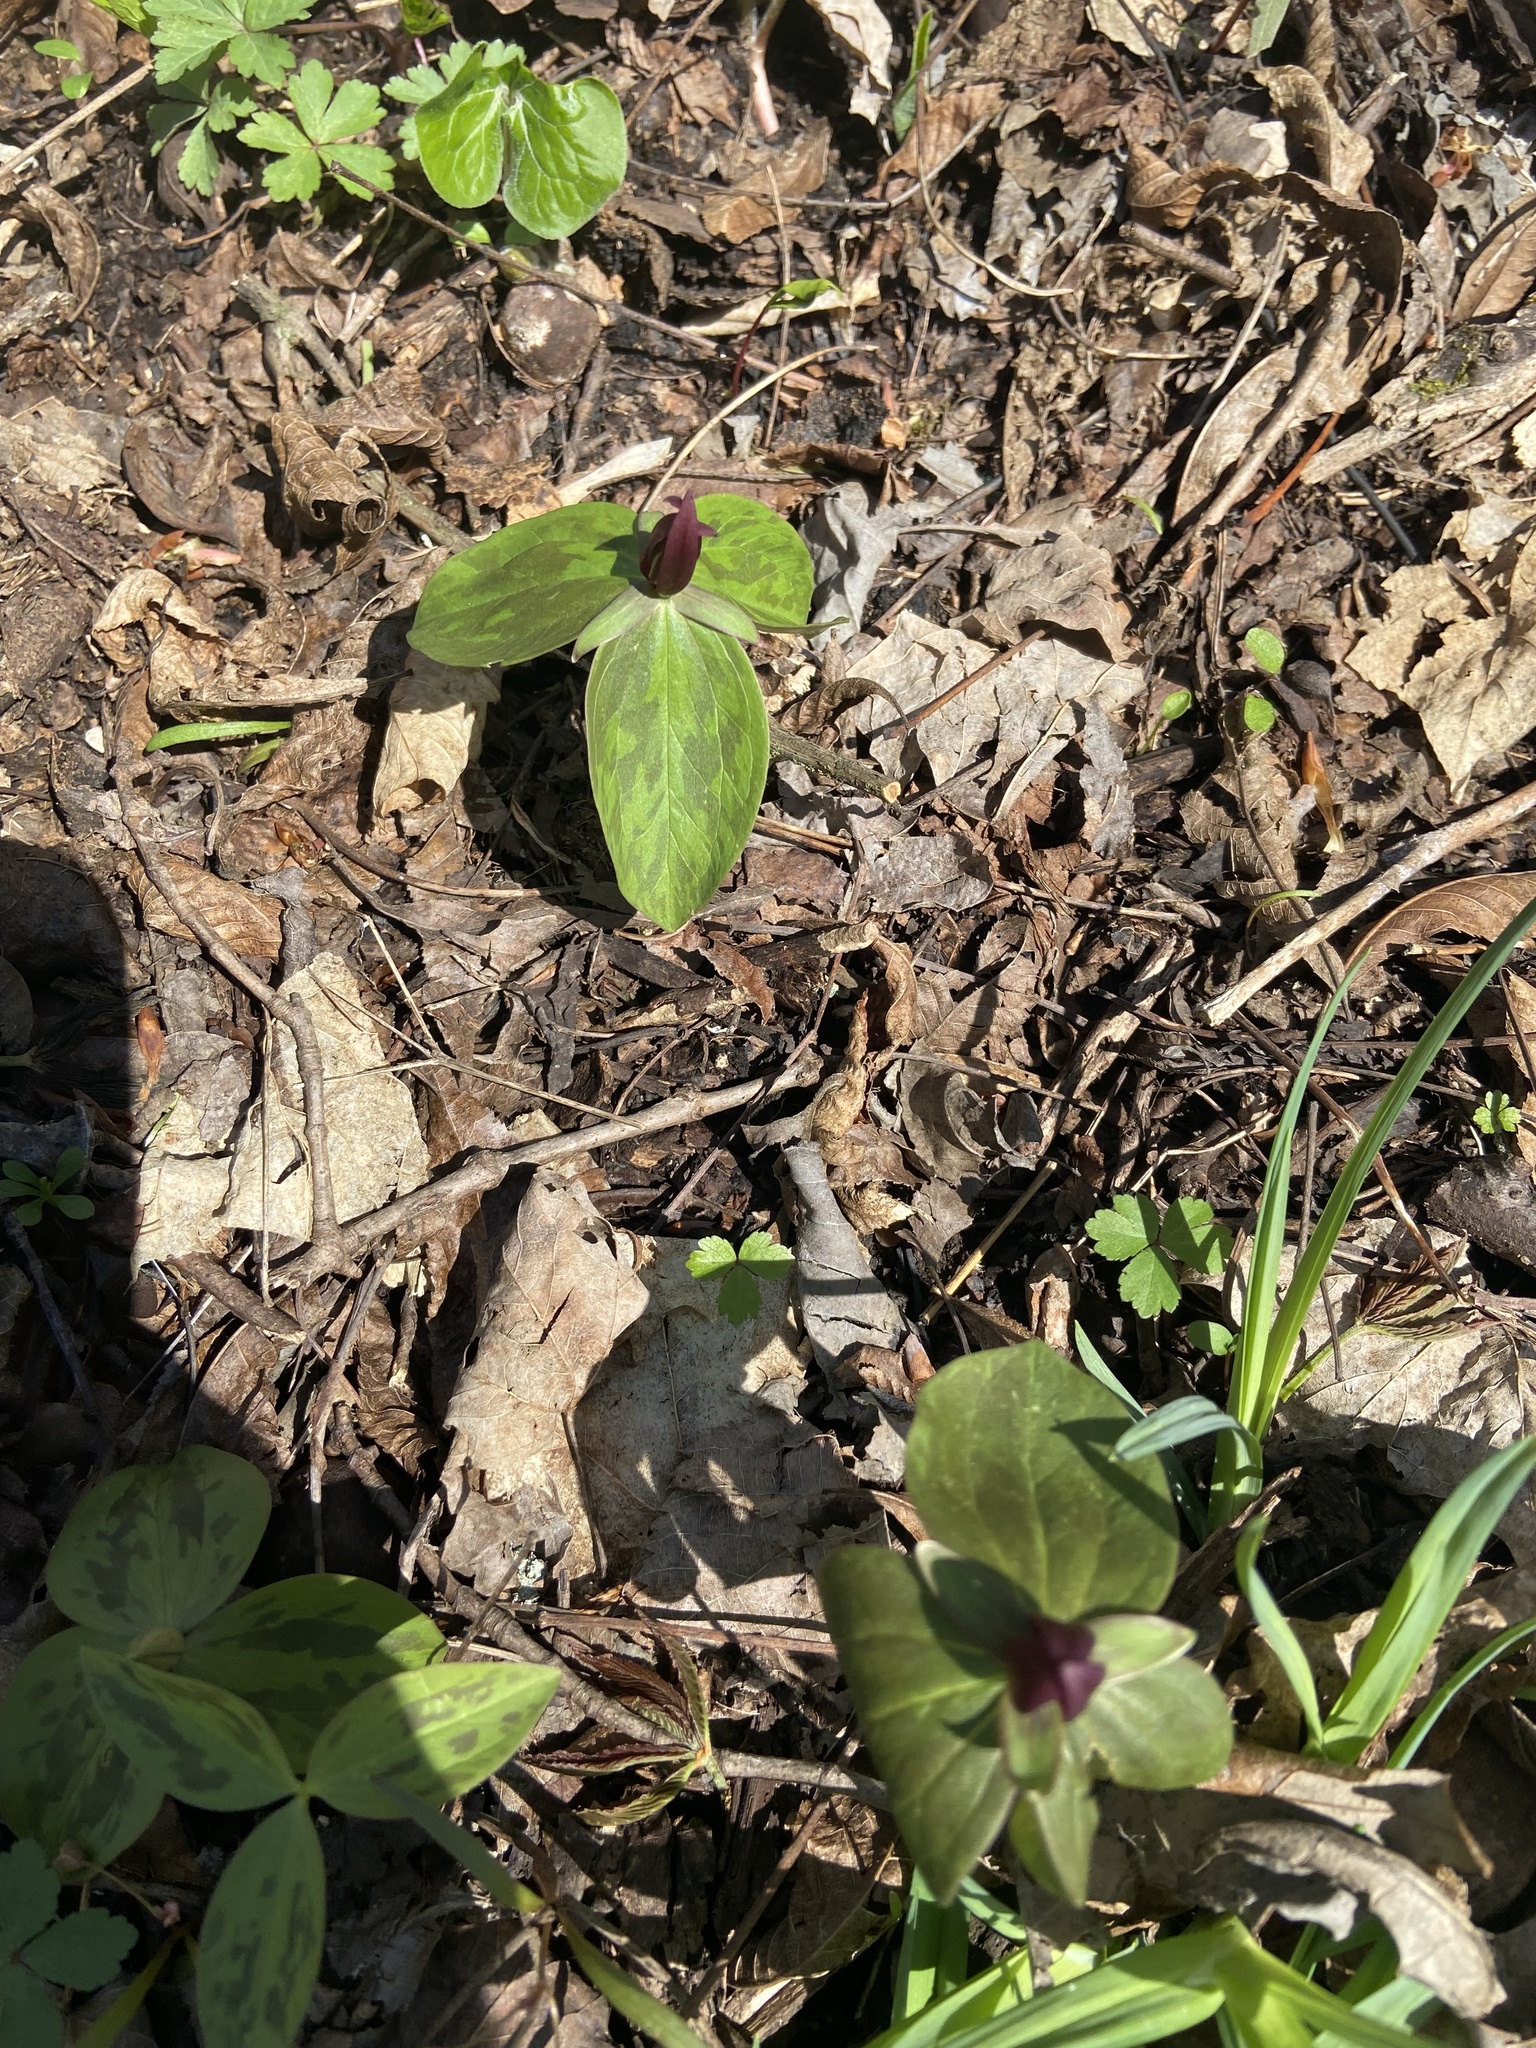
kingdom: Plantae
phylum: Tracheophyta
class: Liliopsida
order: Liliales
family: Melanthiaceae
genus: Trillium
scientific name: Trillium sessile
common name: Sessile trillium
